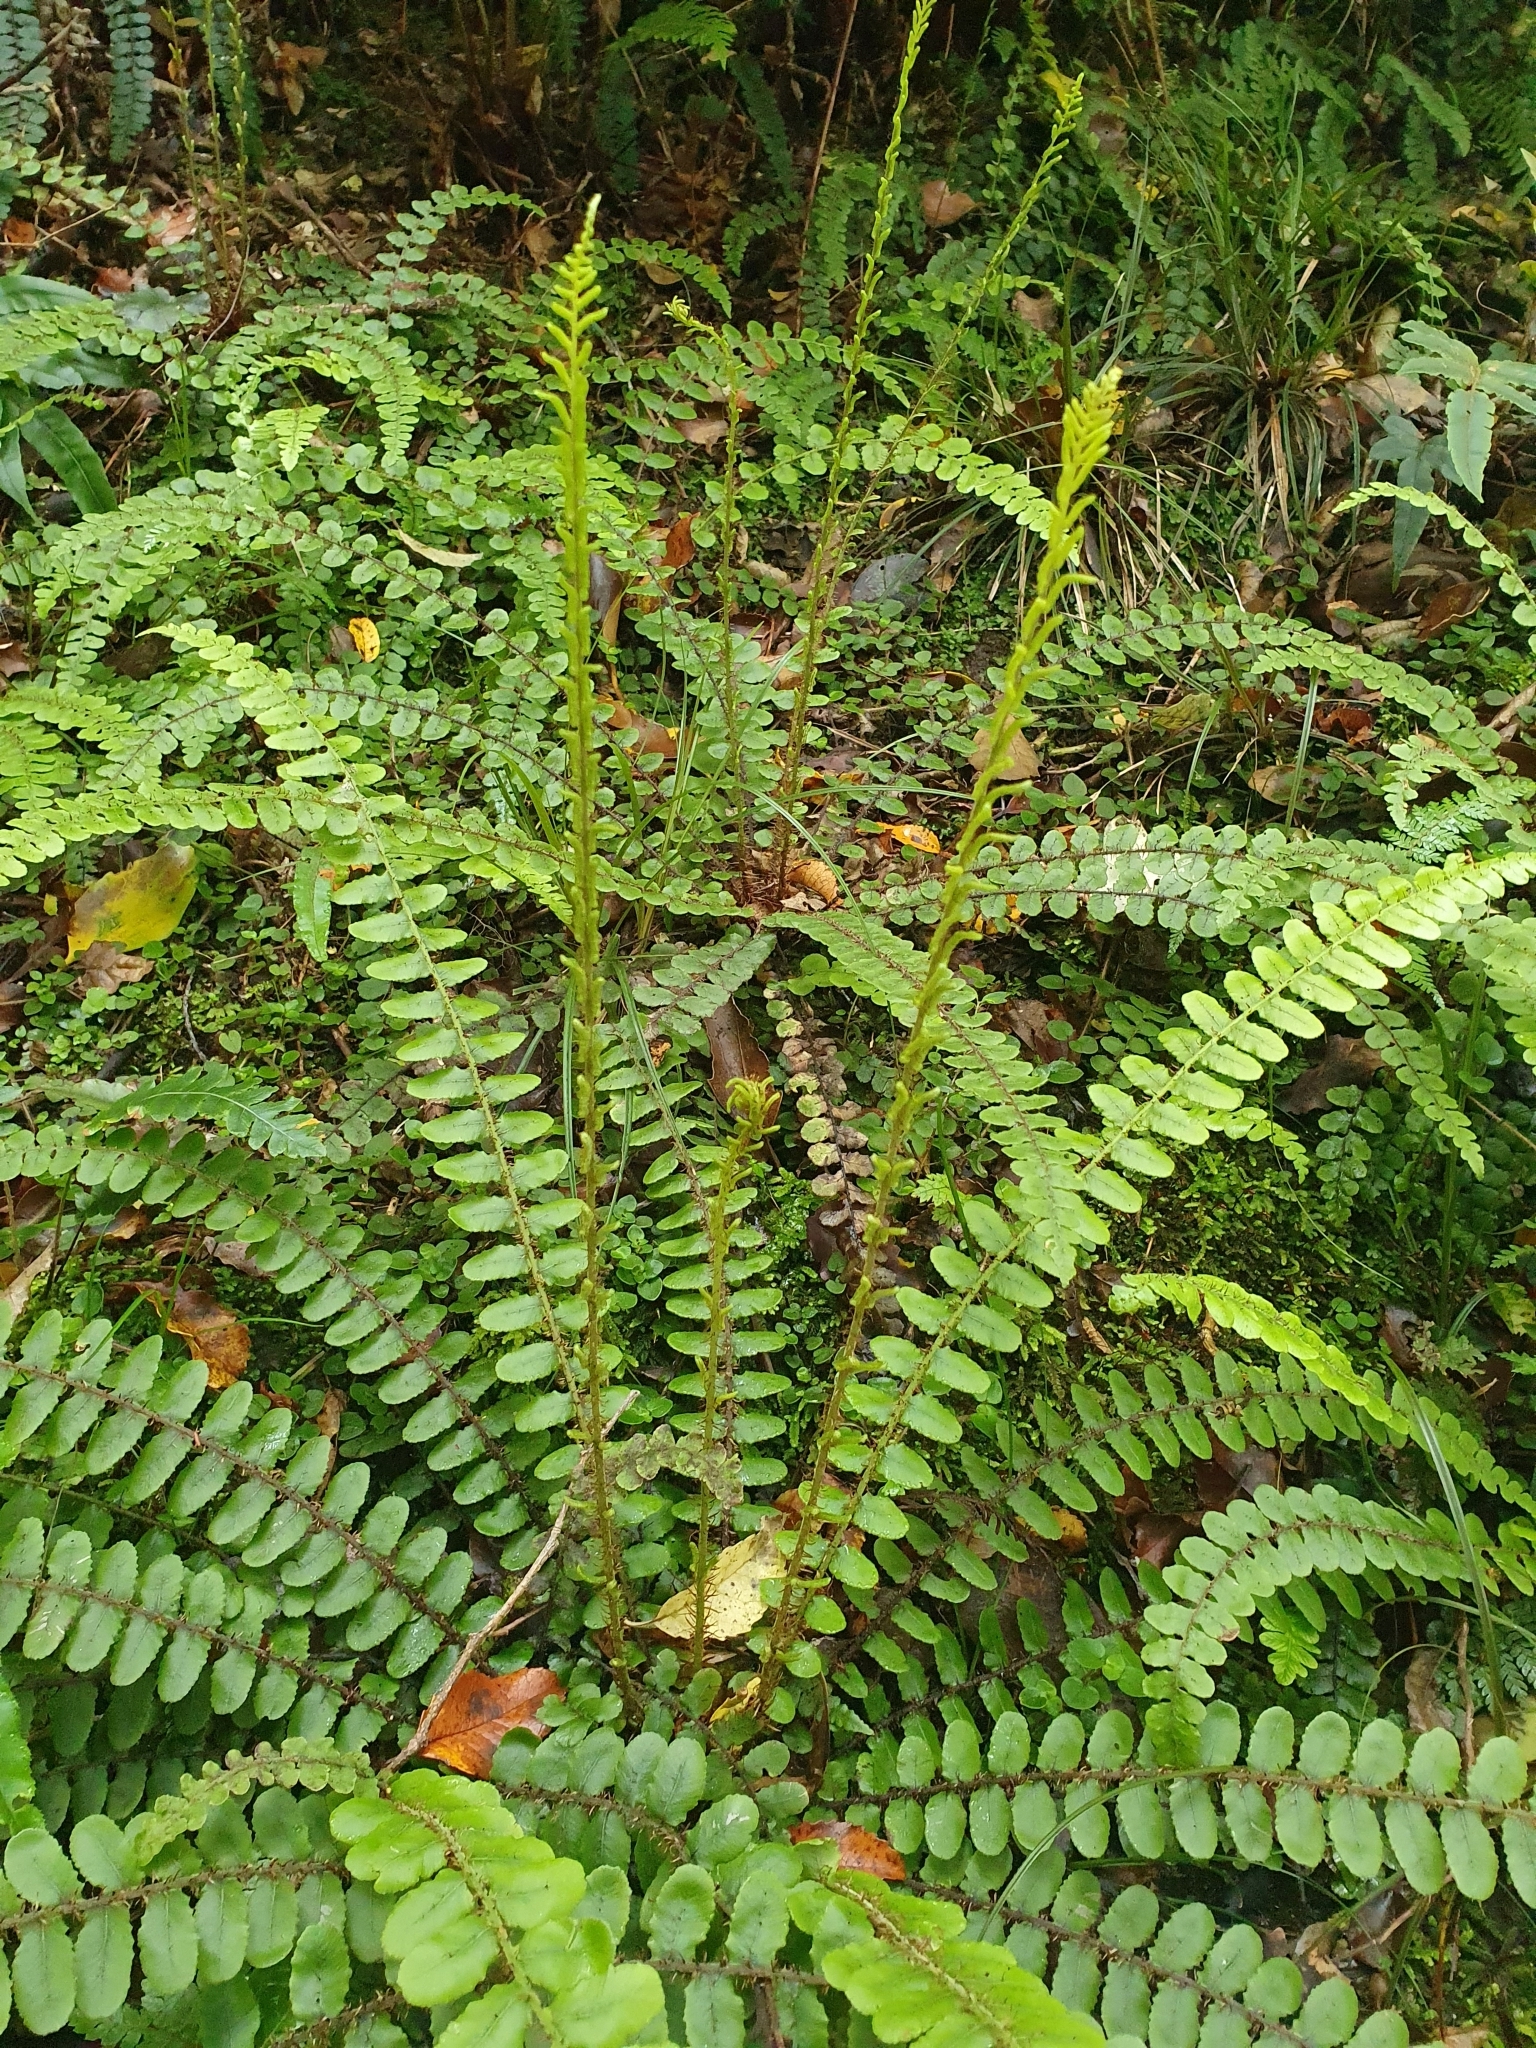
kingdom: Plantae
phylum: Tracheophyta
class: Polypodiopsida
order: Polypodiales
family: Blechnaceae
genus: Cranfillia
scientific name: Cranfillia fluviatilis
